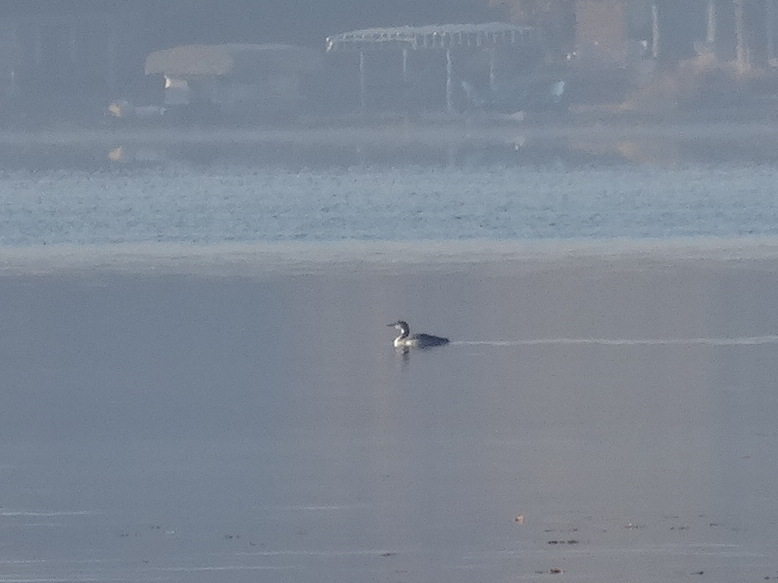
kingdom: Animalia
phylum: Chordata
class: Aves
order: Gaviiformes
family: Gaviidae
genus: Gavia
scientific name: Gavia immer
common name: Common loon
